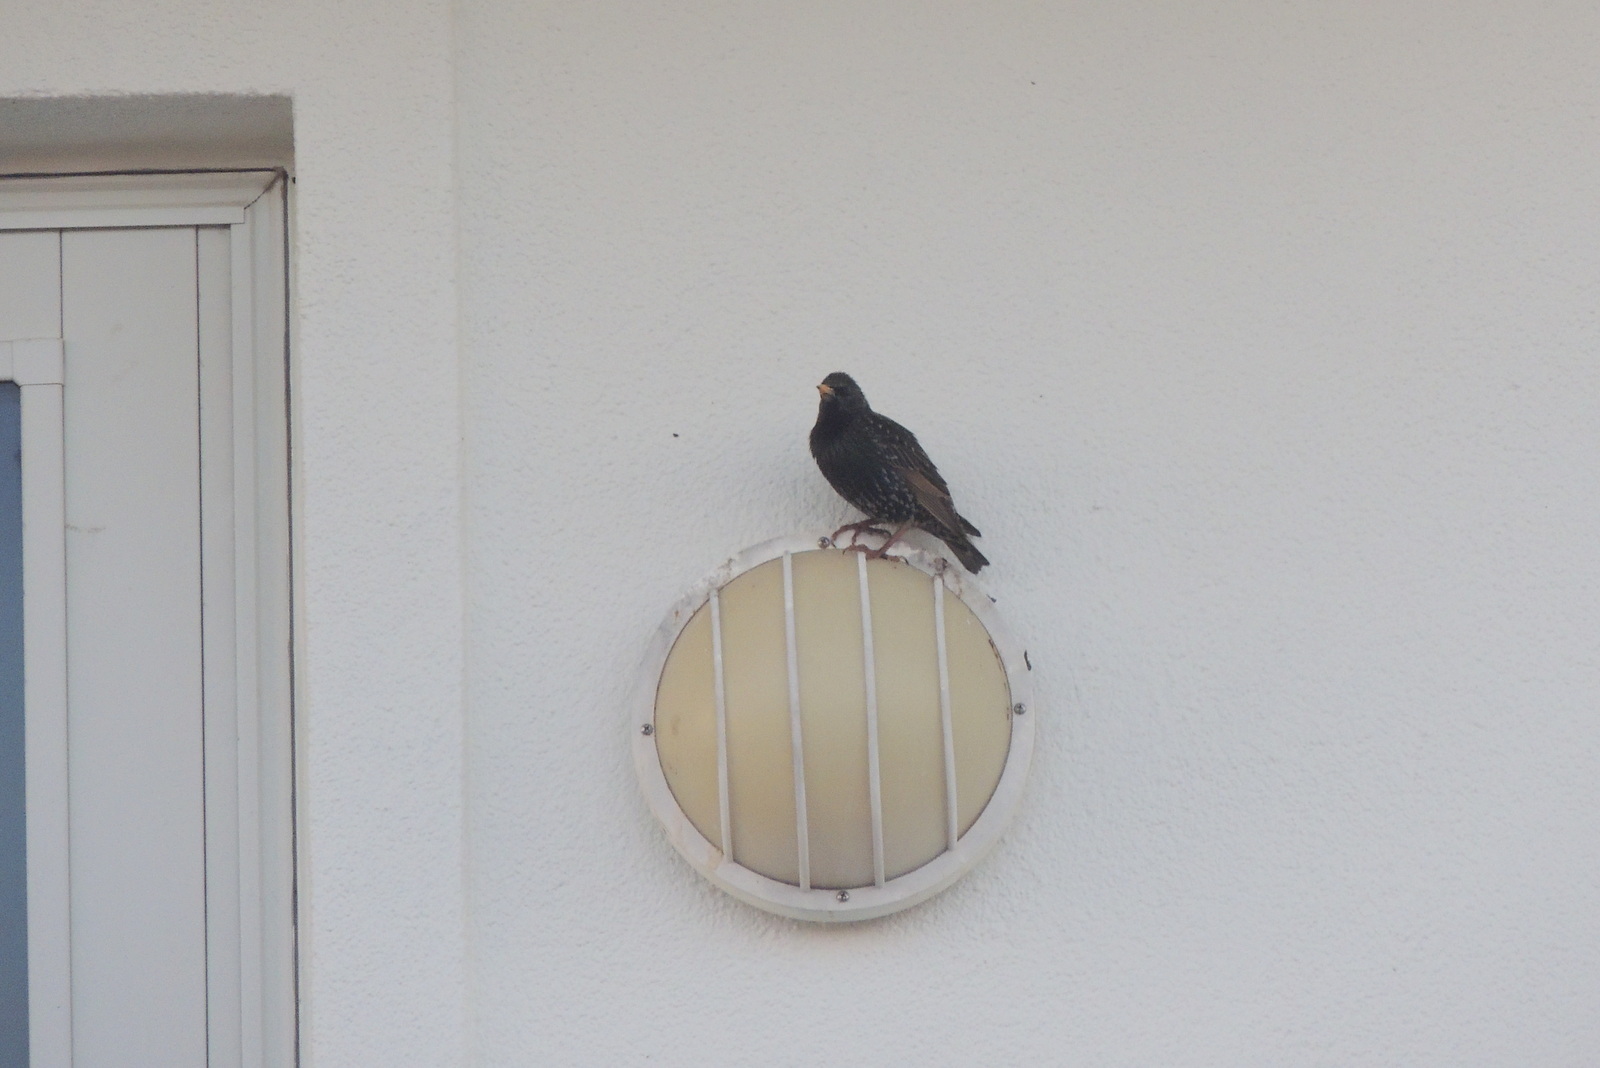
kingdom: Animalia
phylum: Chordata
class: Aves
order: Passeriformes
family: Sturnidae
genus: Sturnus
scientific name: Sturnus vulgaris
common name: Common starling
